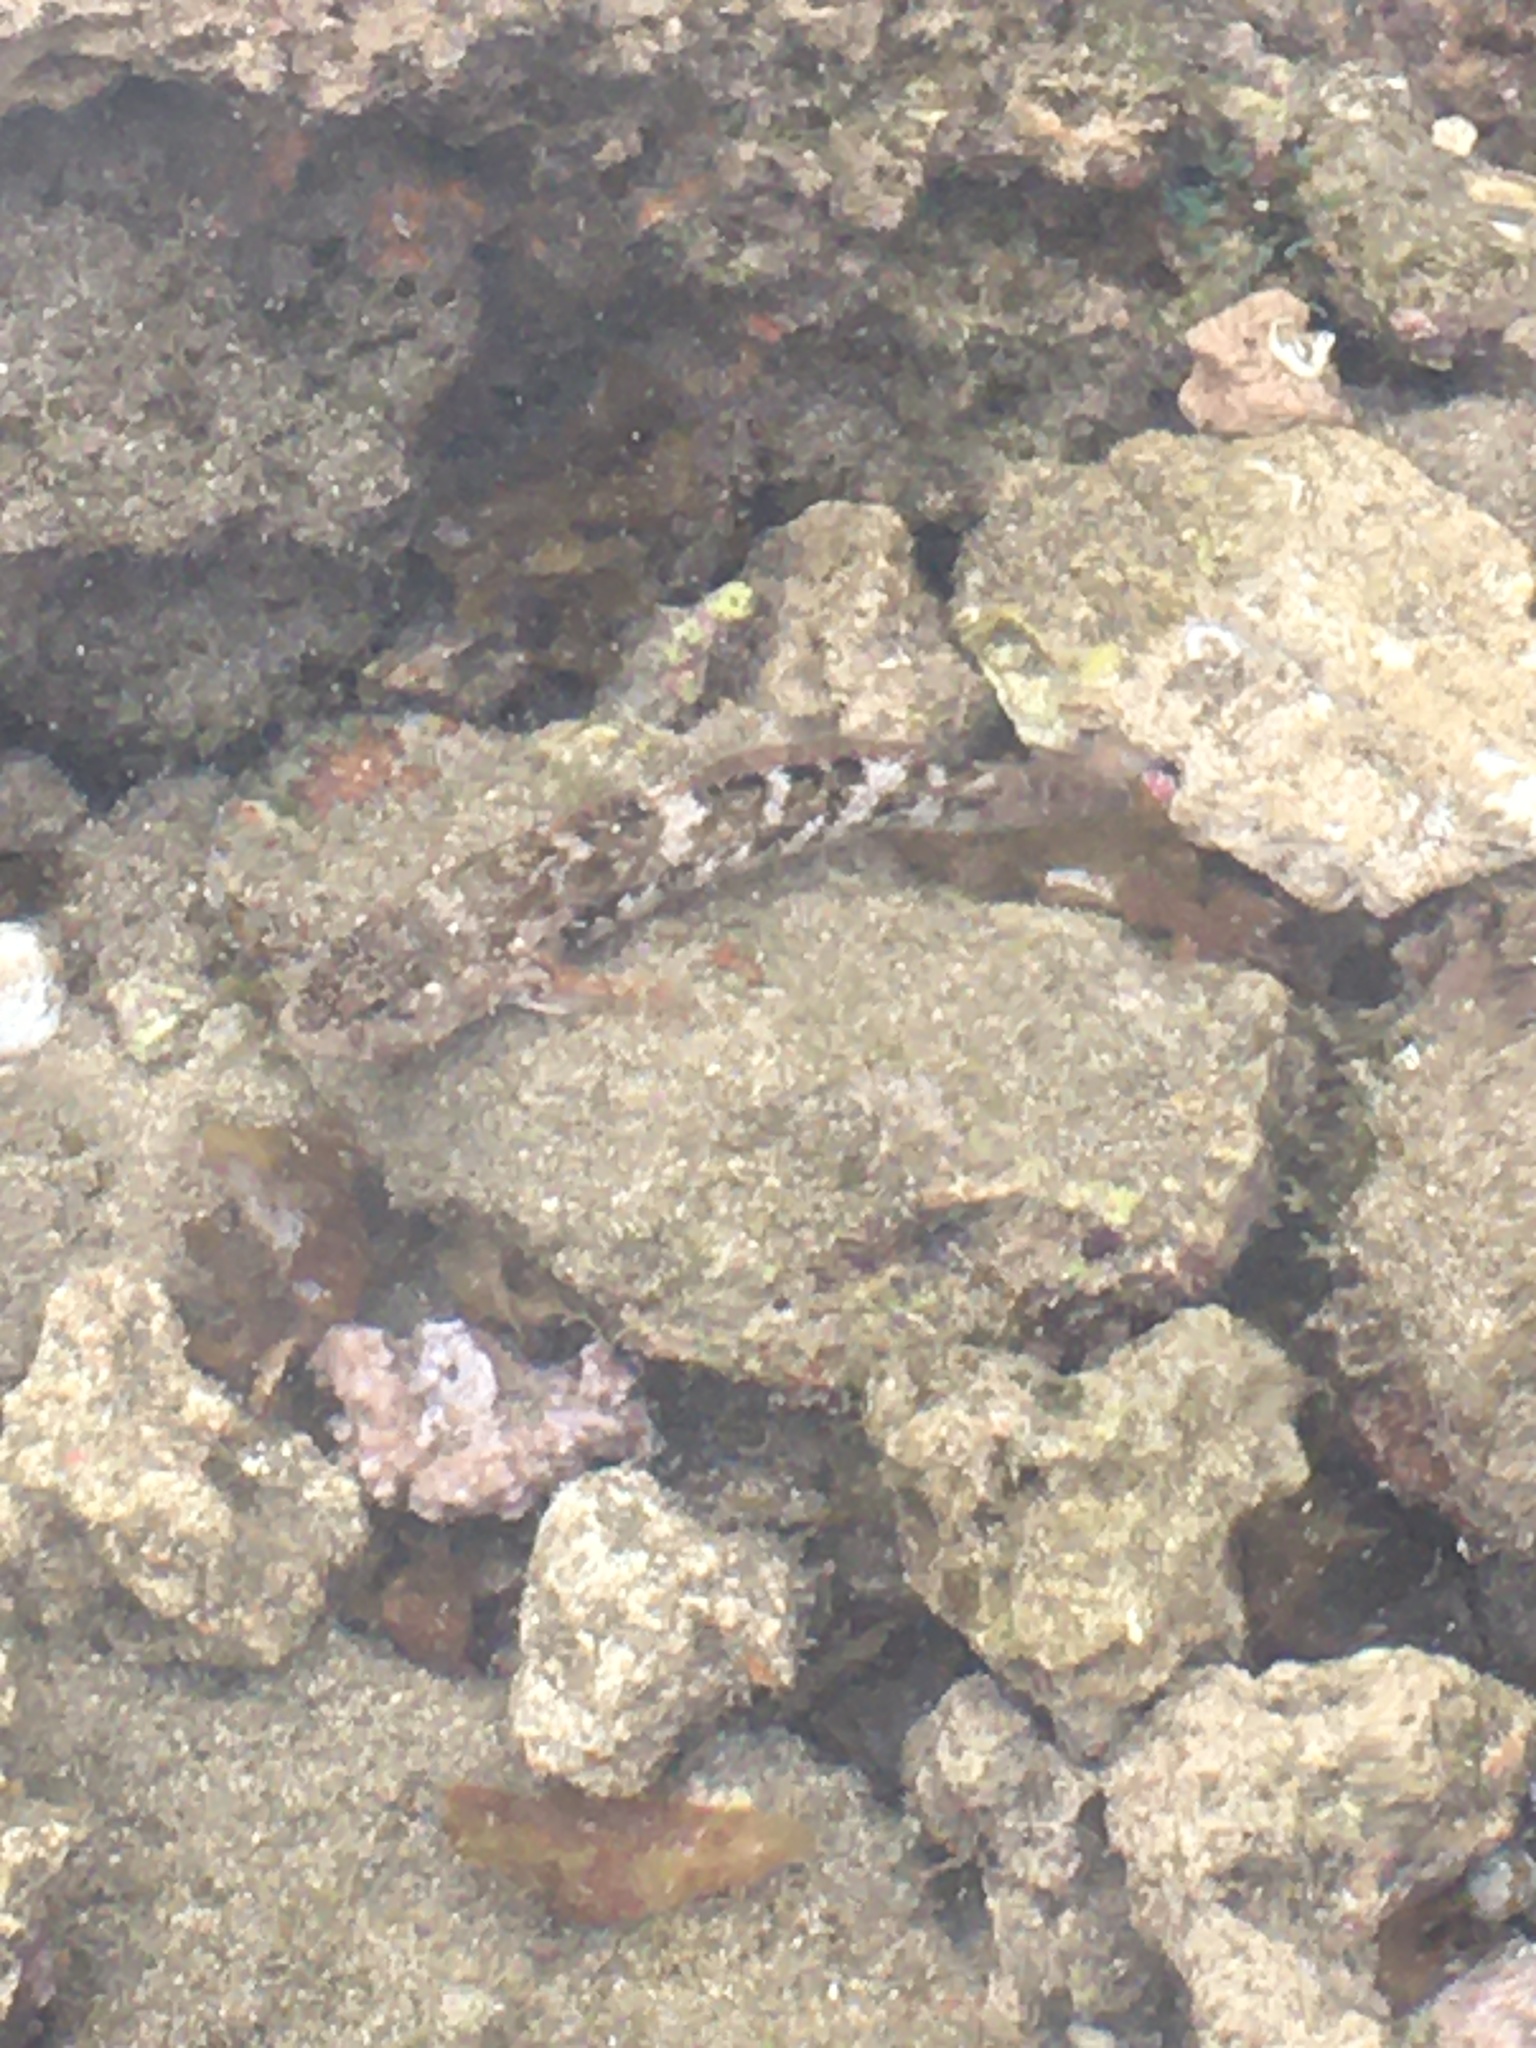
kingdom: Animalia
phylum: Chordata
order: Perciformes
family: Gobiidae
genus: Mauligobius
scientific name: Mauligobius maderensis
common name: Rock goby
